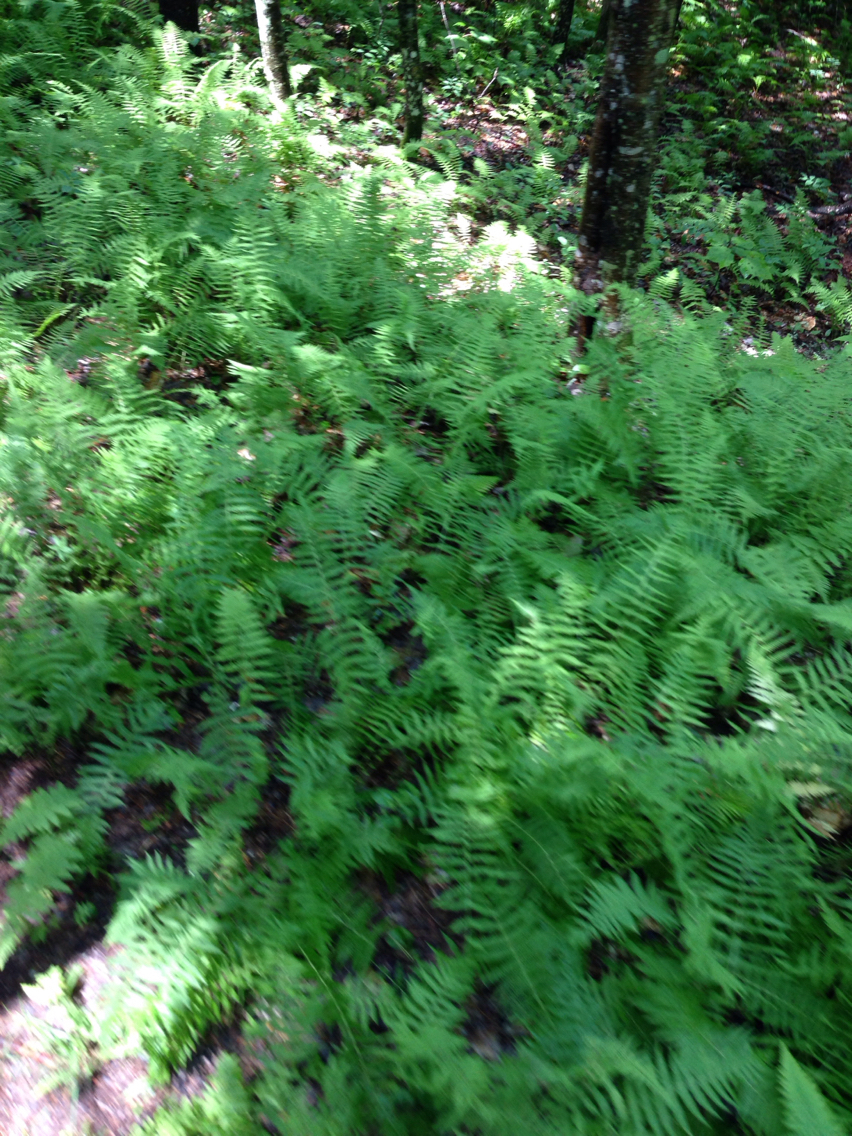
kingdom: Plantae
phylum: Tracheophyta
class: Polypodiopsida
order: Polypodiales
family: Dennstaedtiaceae
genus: Sitobolium
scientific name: Sitobolium punctilobum
